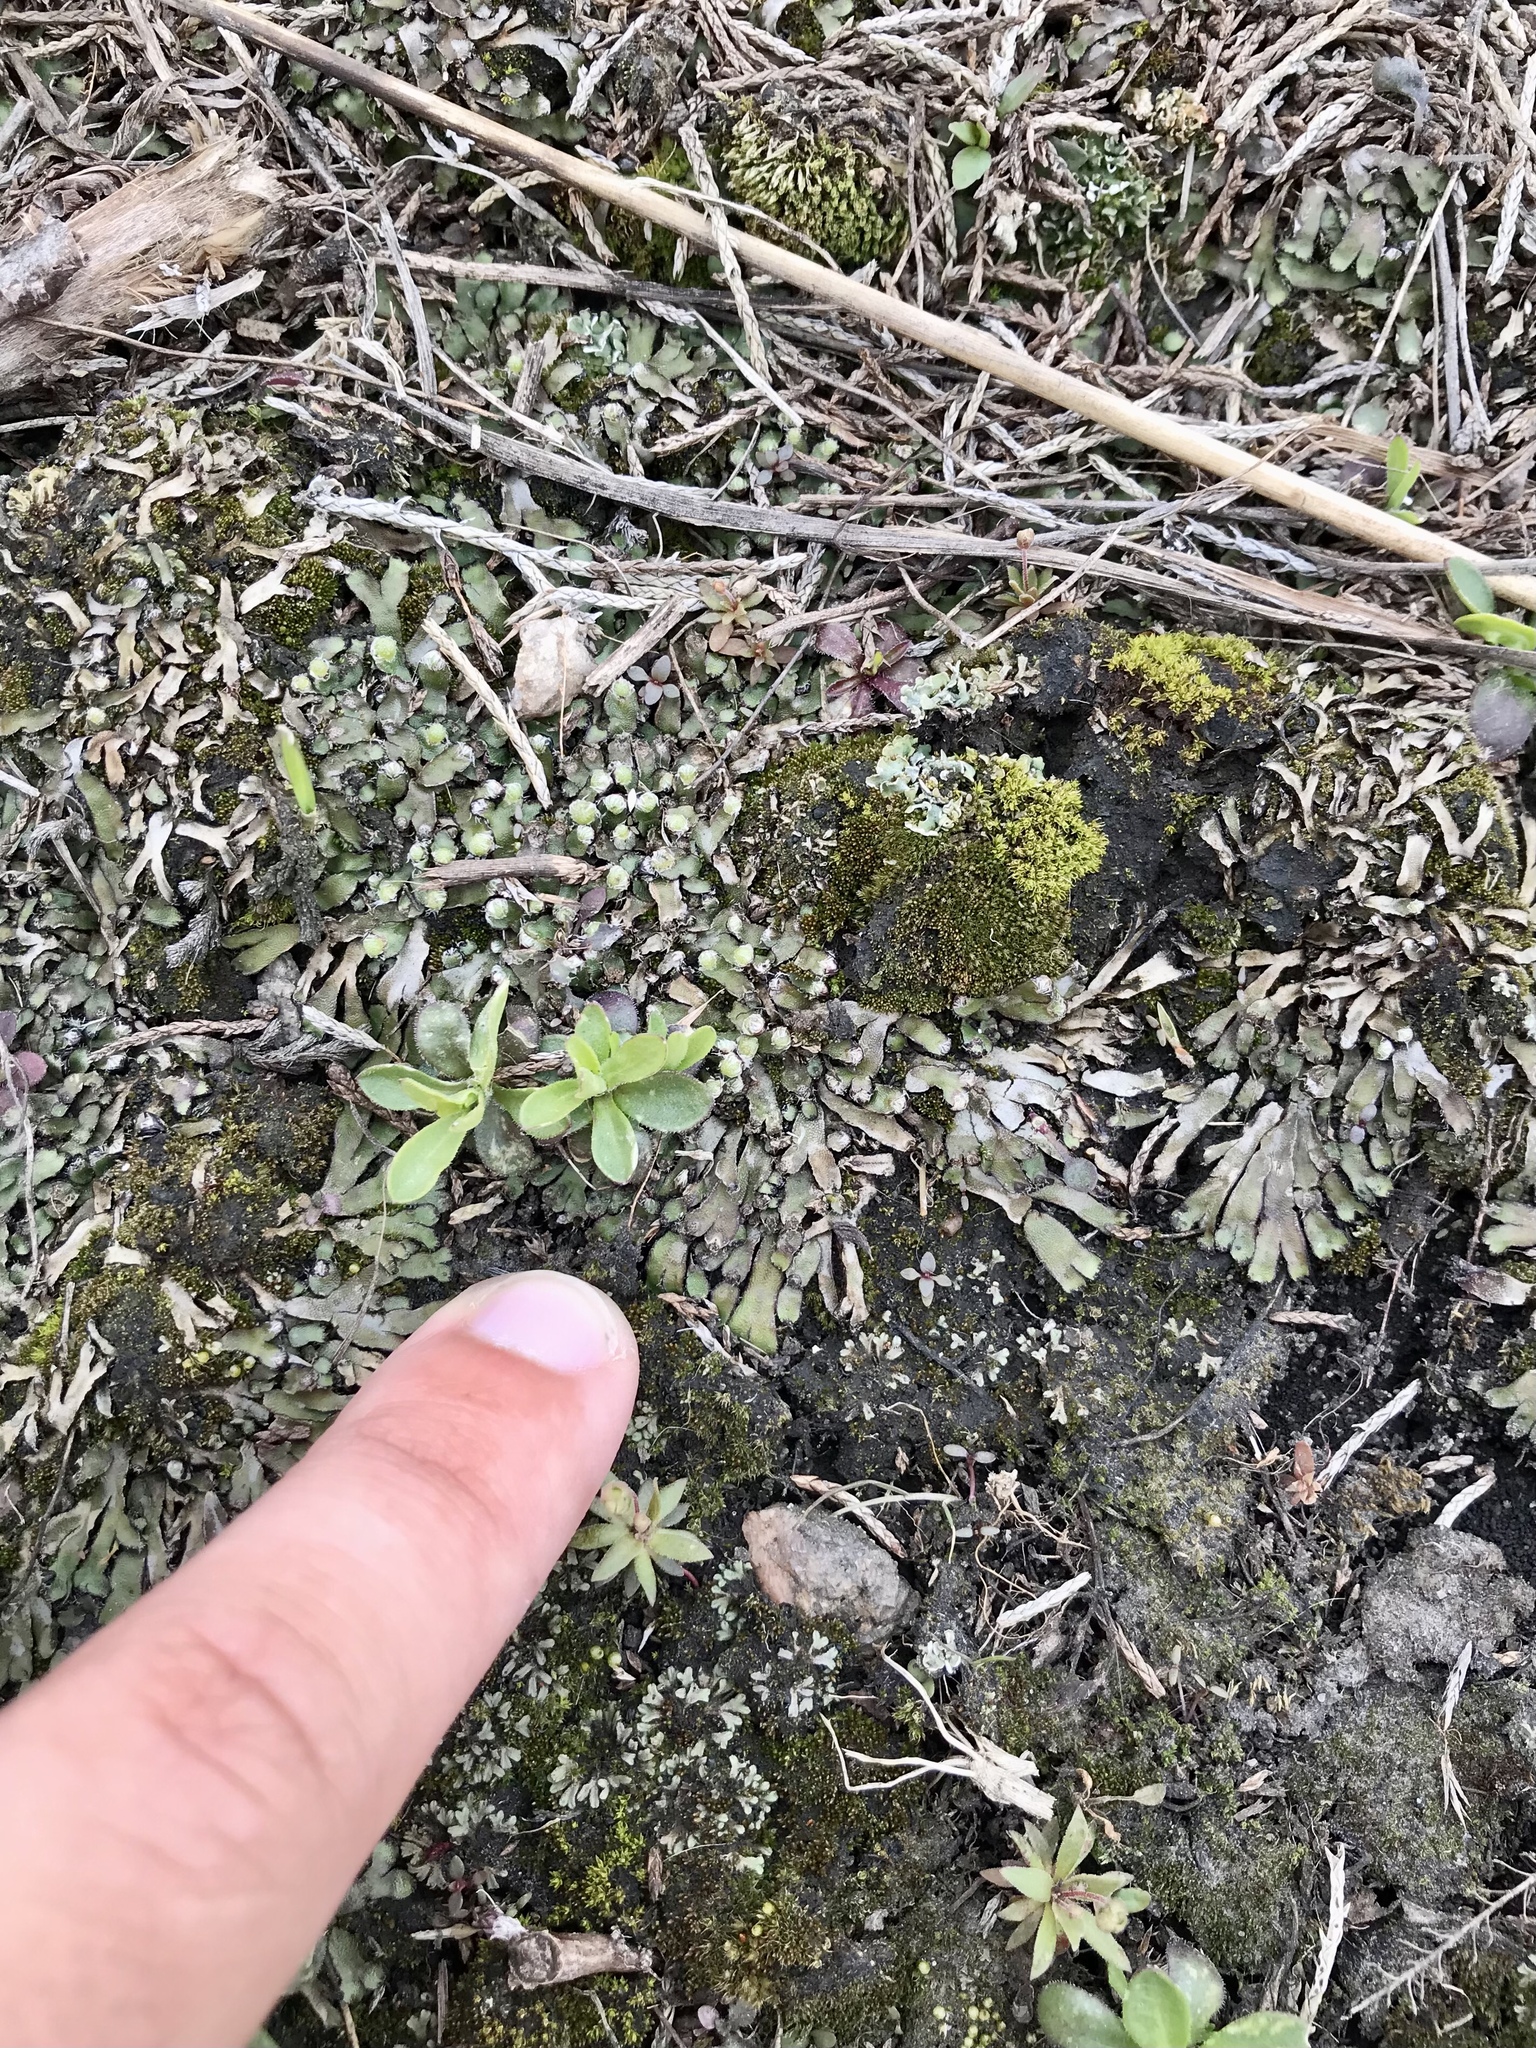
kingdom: Plantae
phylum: Marchantiophyta
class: Marchantiopsida
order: Marchantiales
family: Aytoniaceae
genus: Mannia
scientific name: Mannia fragrans
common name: Fragrant macewort
